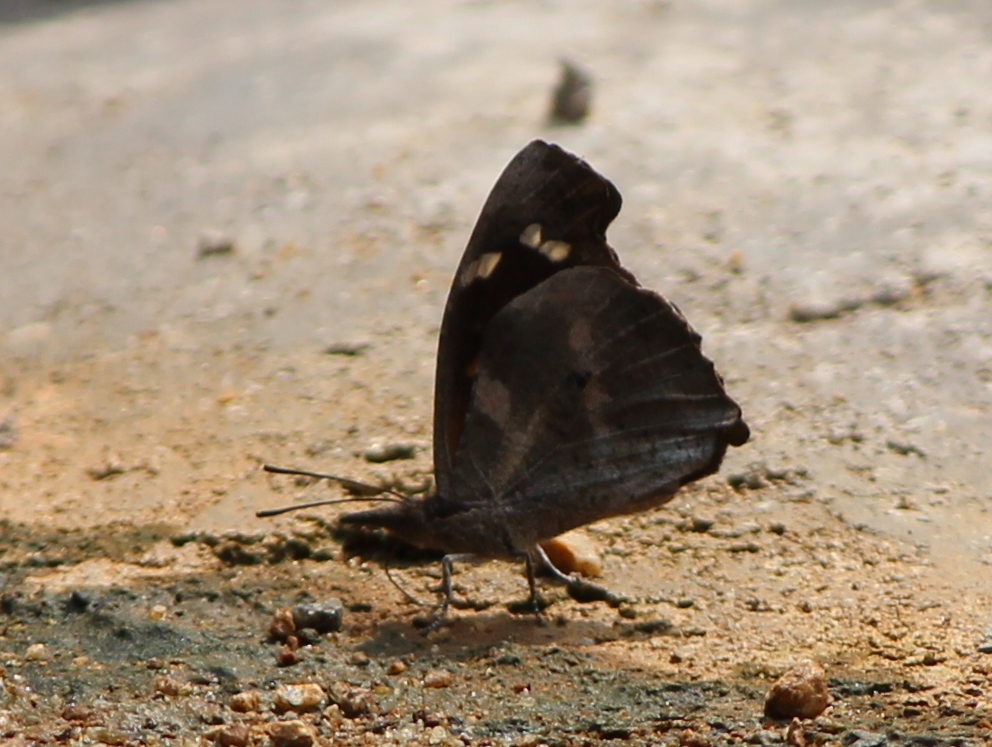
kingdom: Animalia
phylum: Arthropoda
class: Insecta
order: Lepidoptera
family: Nymphalidae
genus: Libythea
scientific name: Libythea laius
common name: African snout
